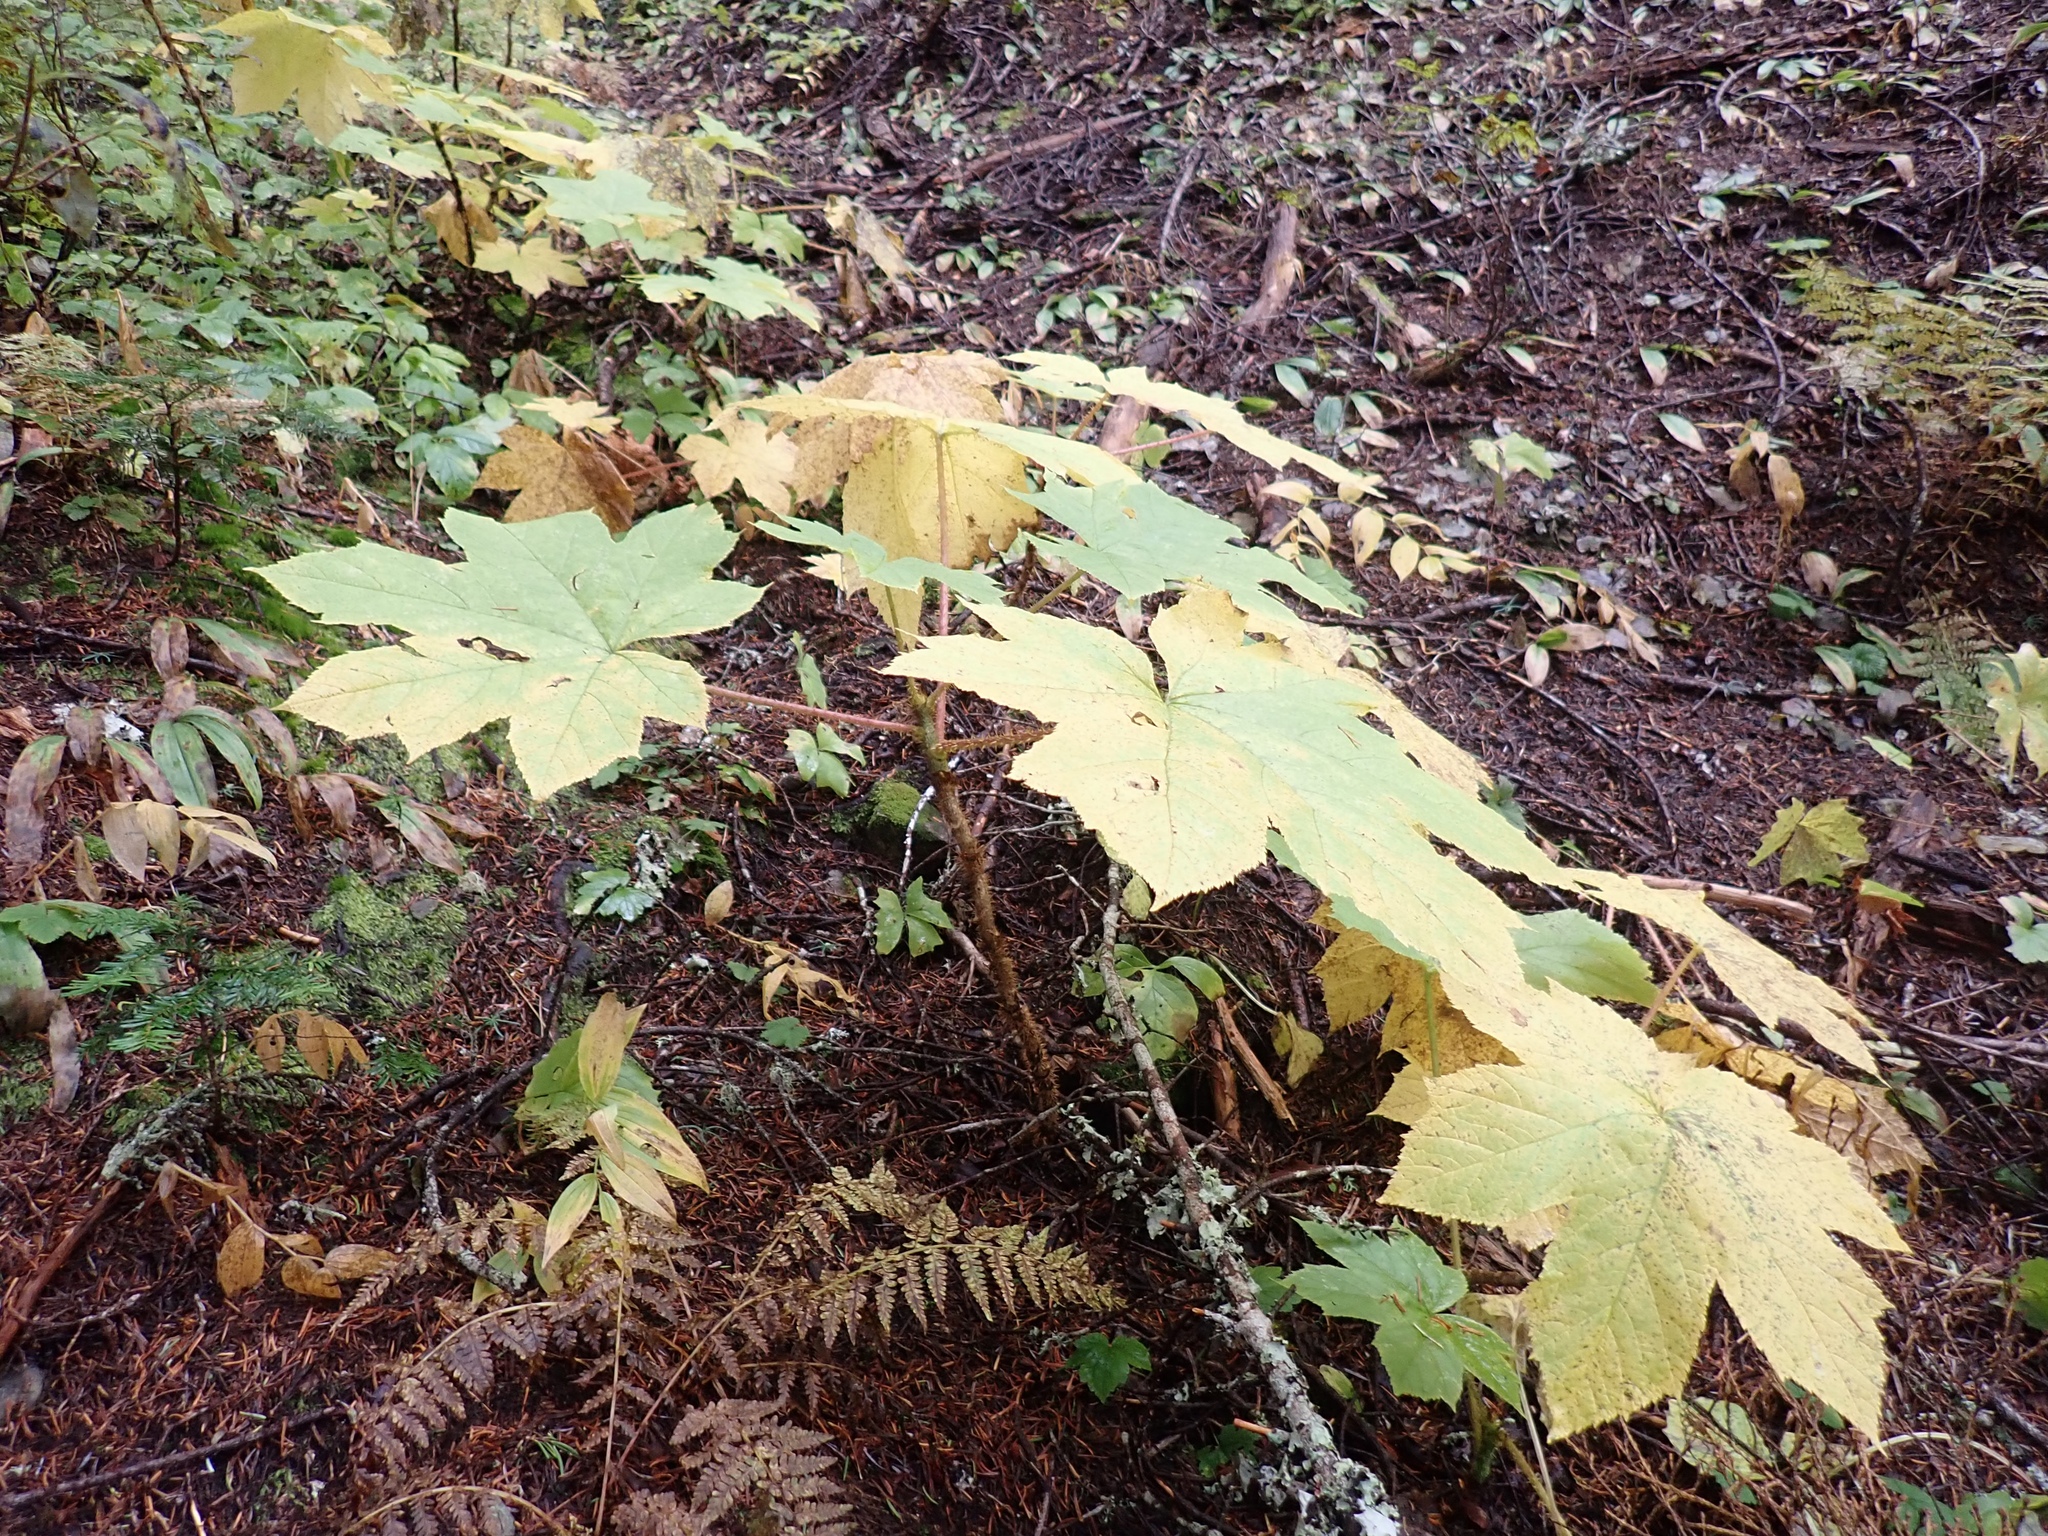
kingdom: Plantae
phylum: Tracheophyta
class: Magnoliopsida
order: Apiales
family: Araliaceae
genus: Oplopanax
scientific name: Oplopanax horridus
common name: Devil's walking-stick
